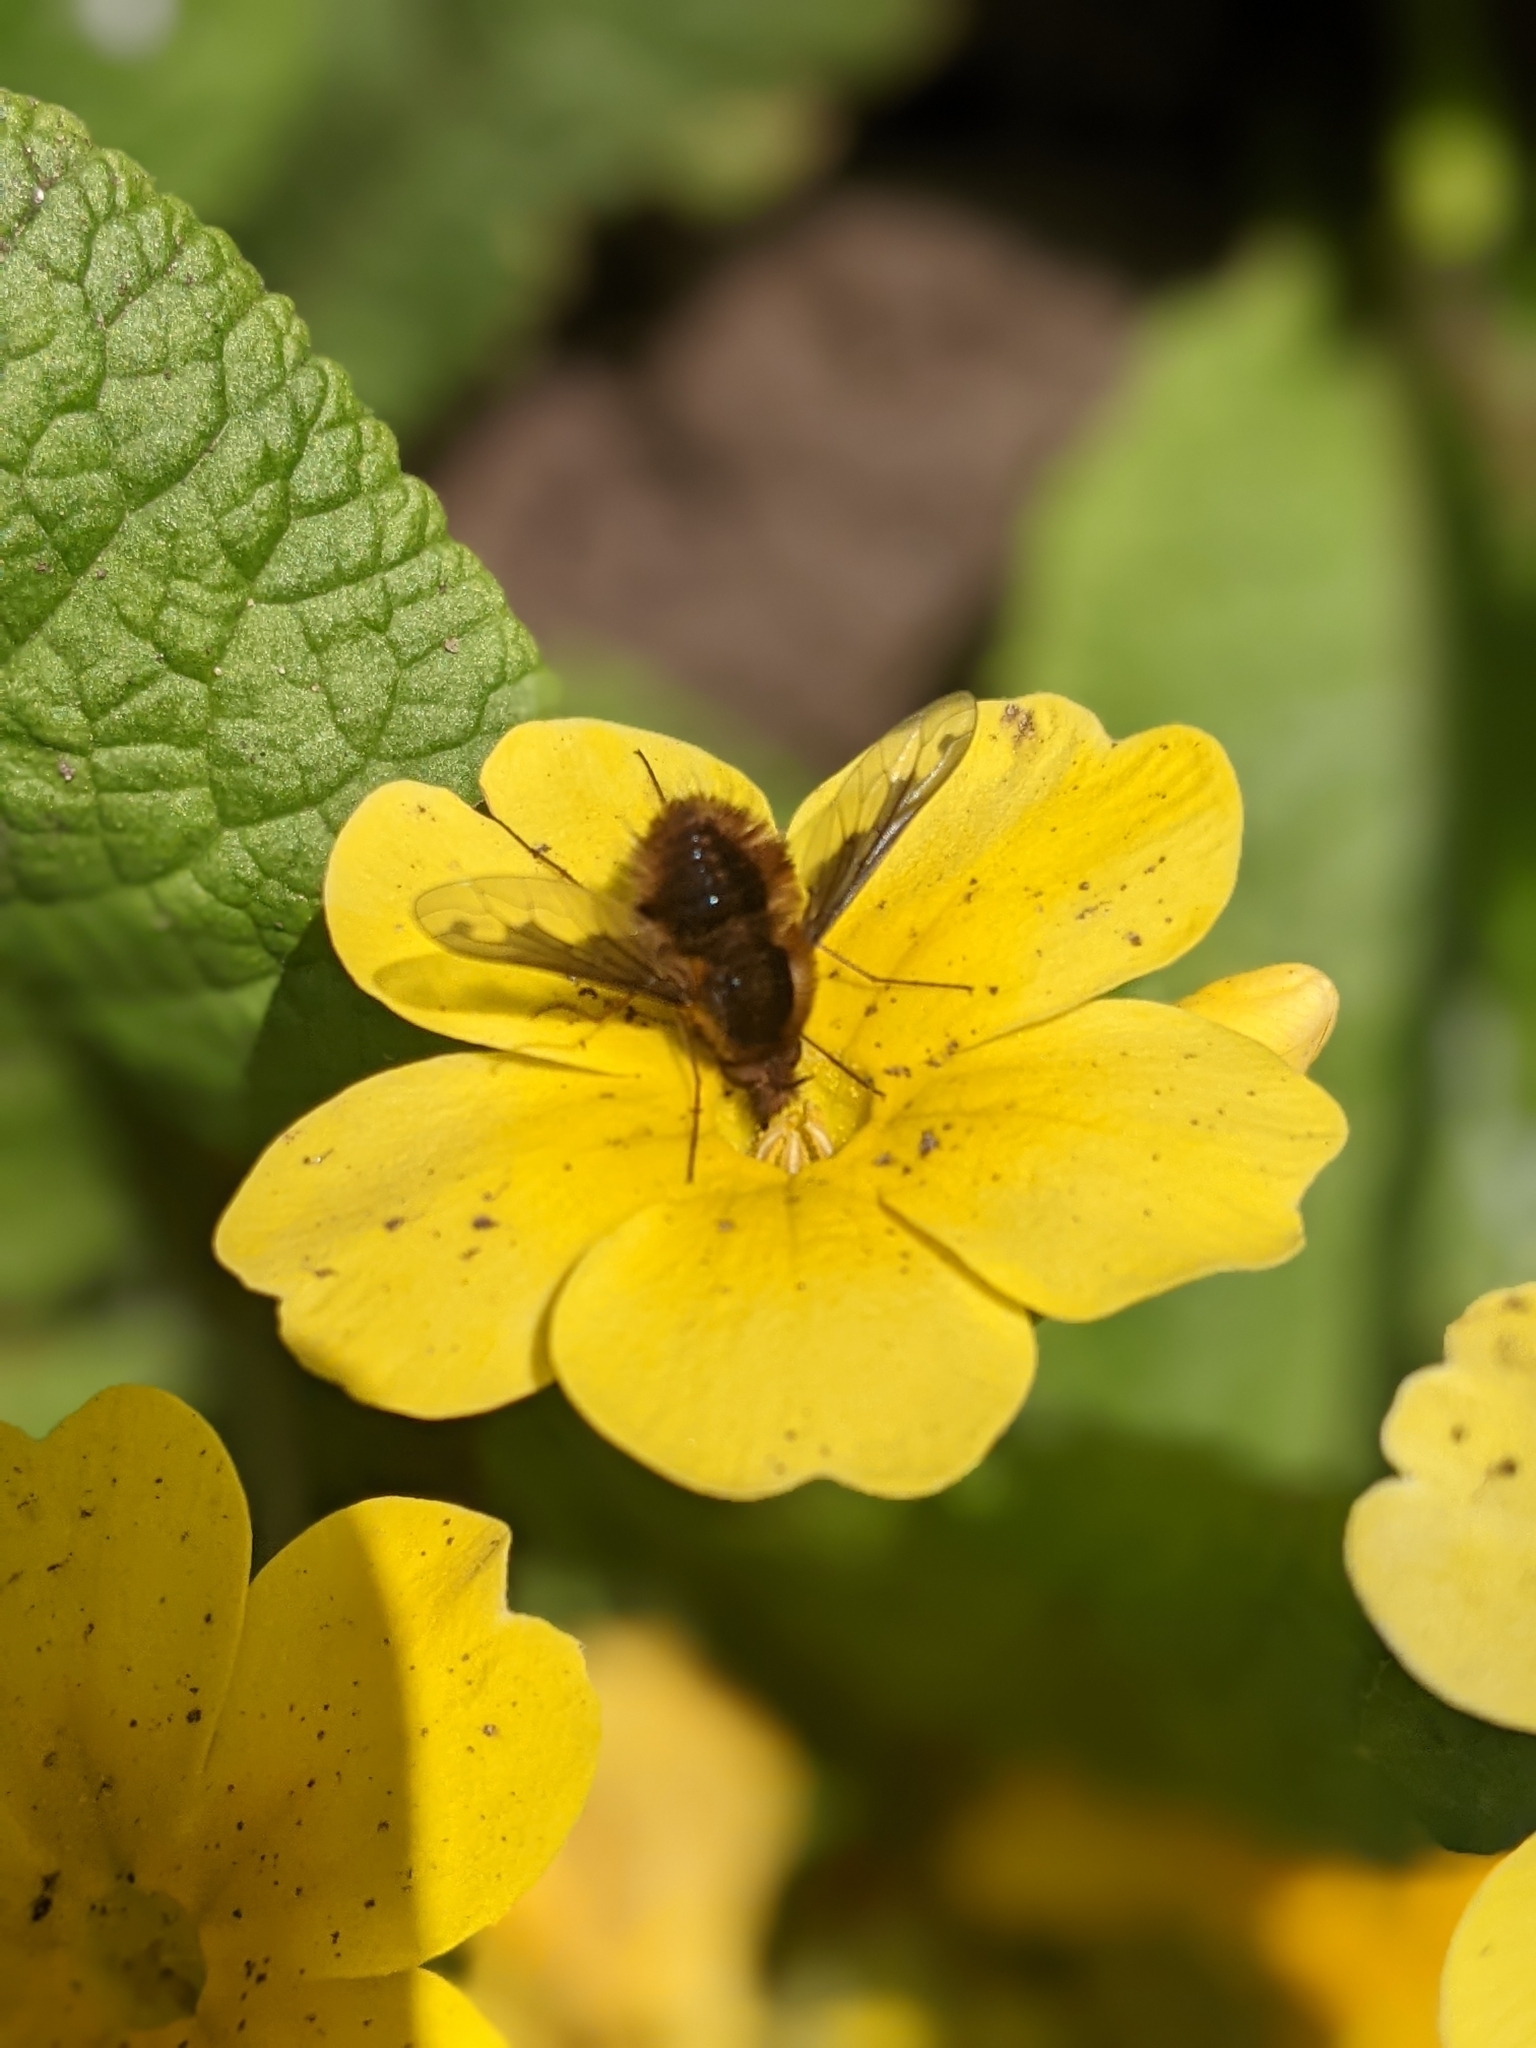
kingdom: Animalia
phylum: Arthropoda
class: Insecta
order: Diptera
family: Bombyliidae
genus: Bombylius
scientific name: Bombylius major
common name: Bee fly
